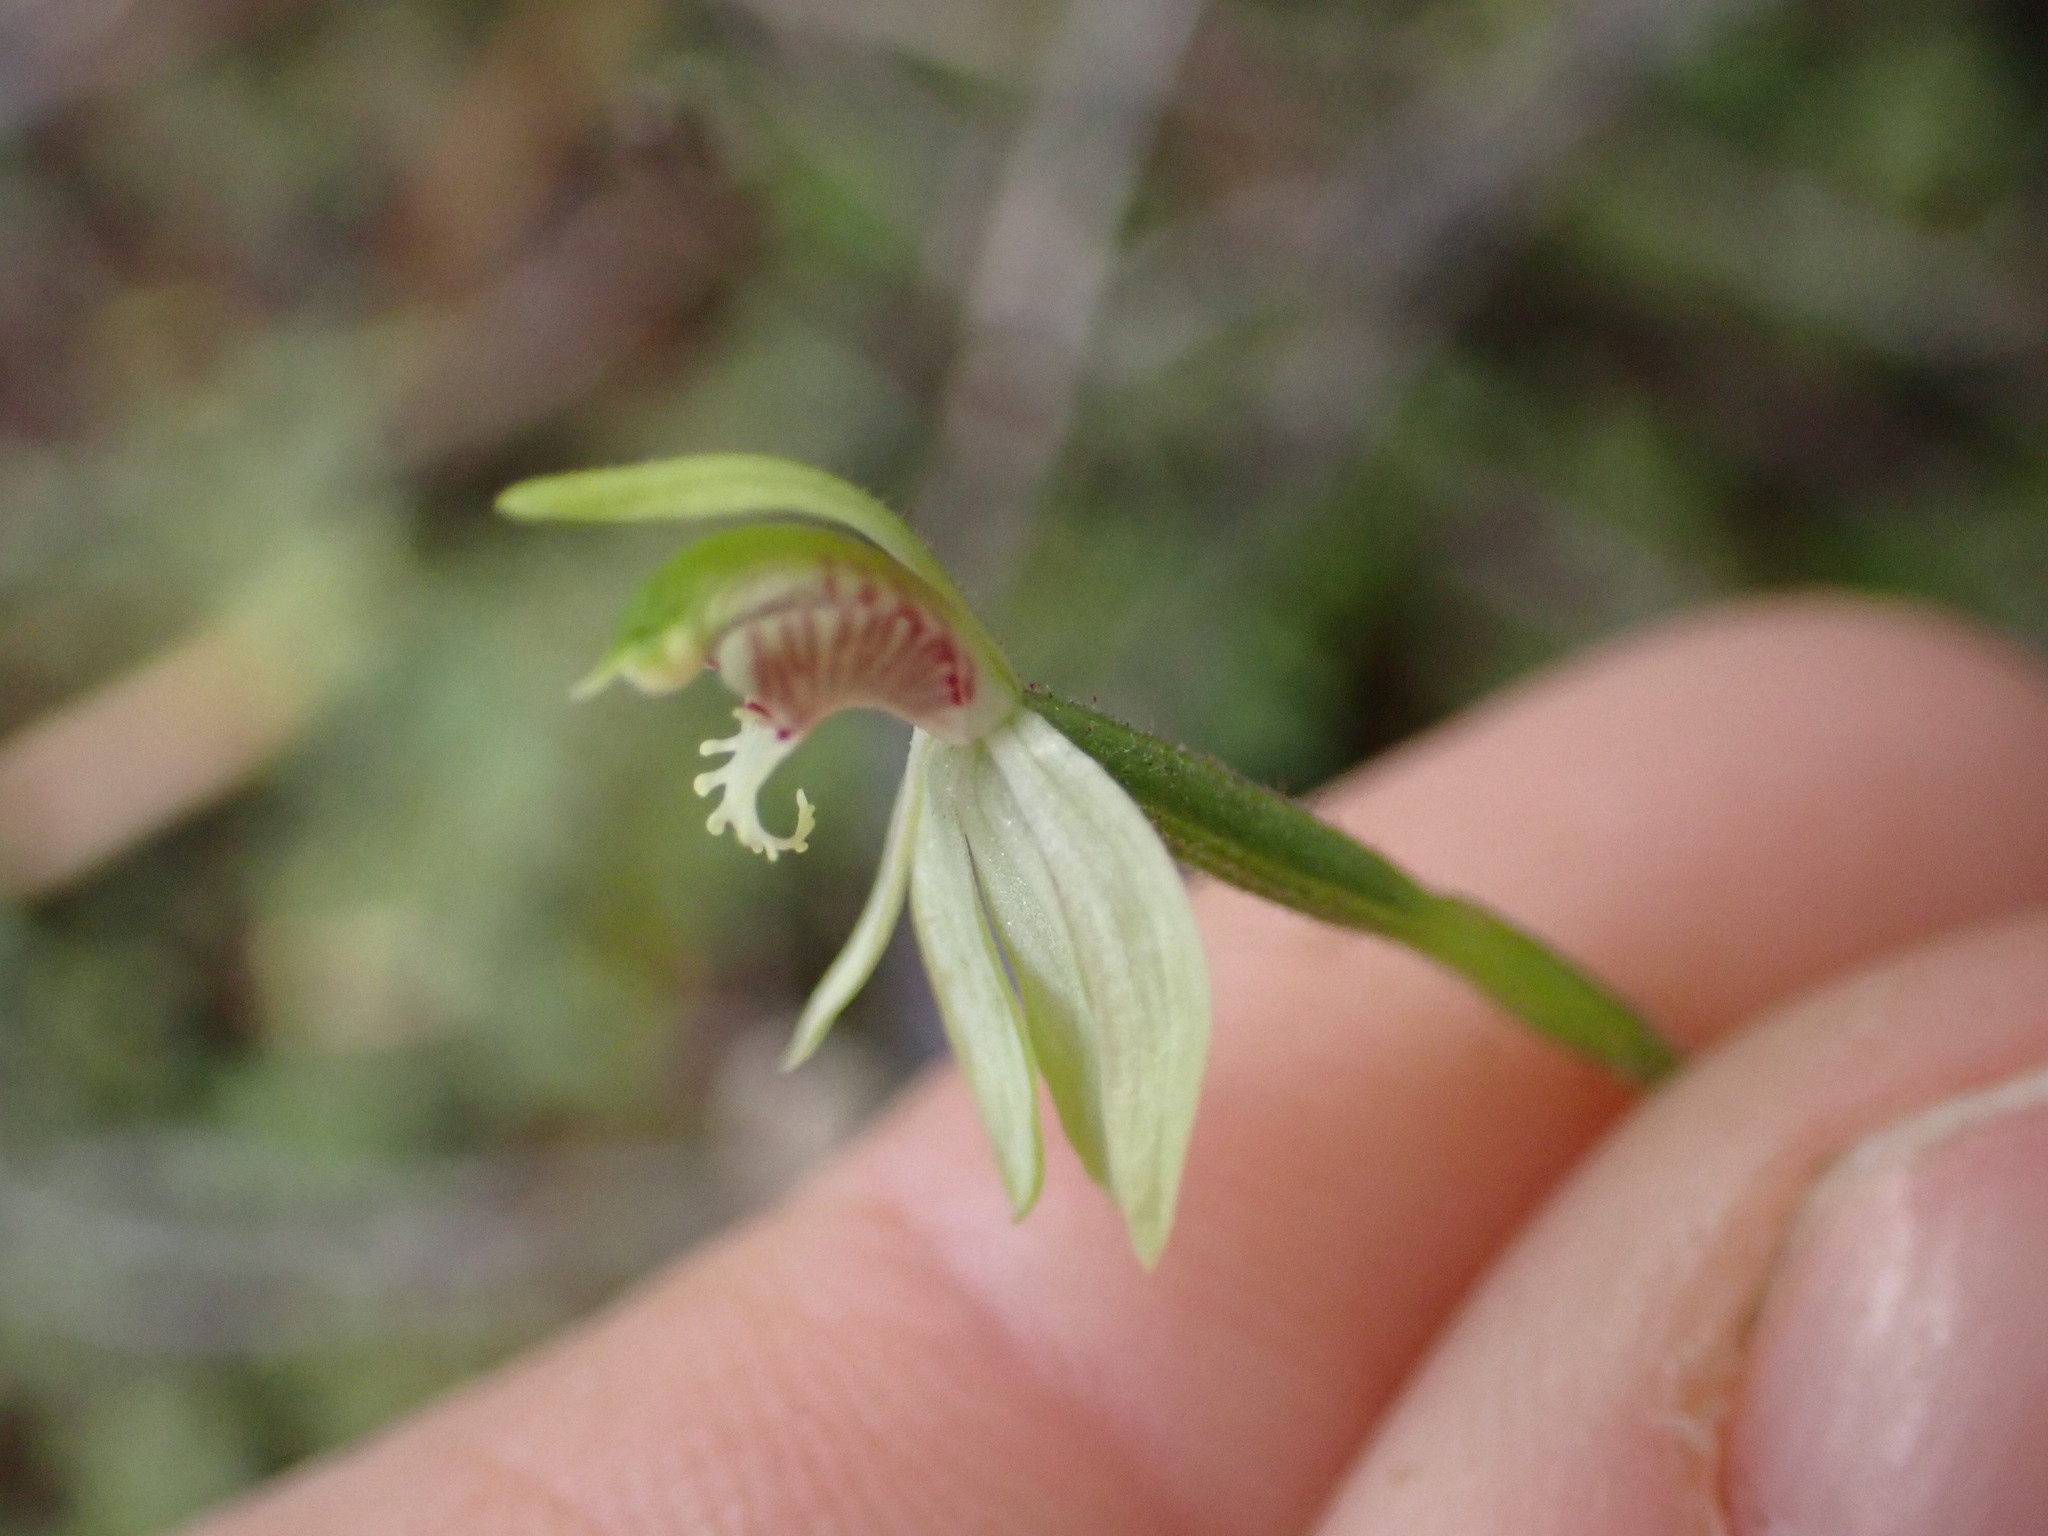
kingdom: Plantae
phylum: Tracheophyta
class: Liliopsida
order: Asparagales
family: Orchidaceae
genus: Caladenia
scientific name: Caladenia chlorostyla
